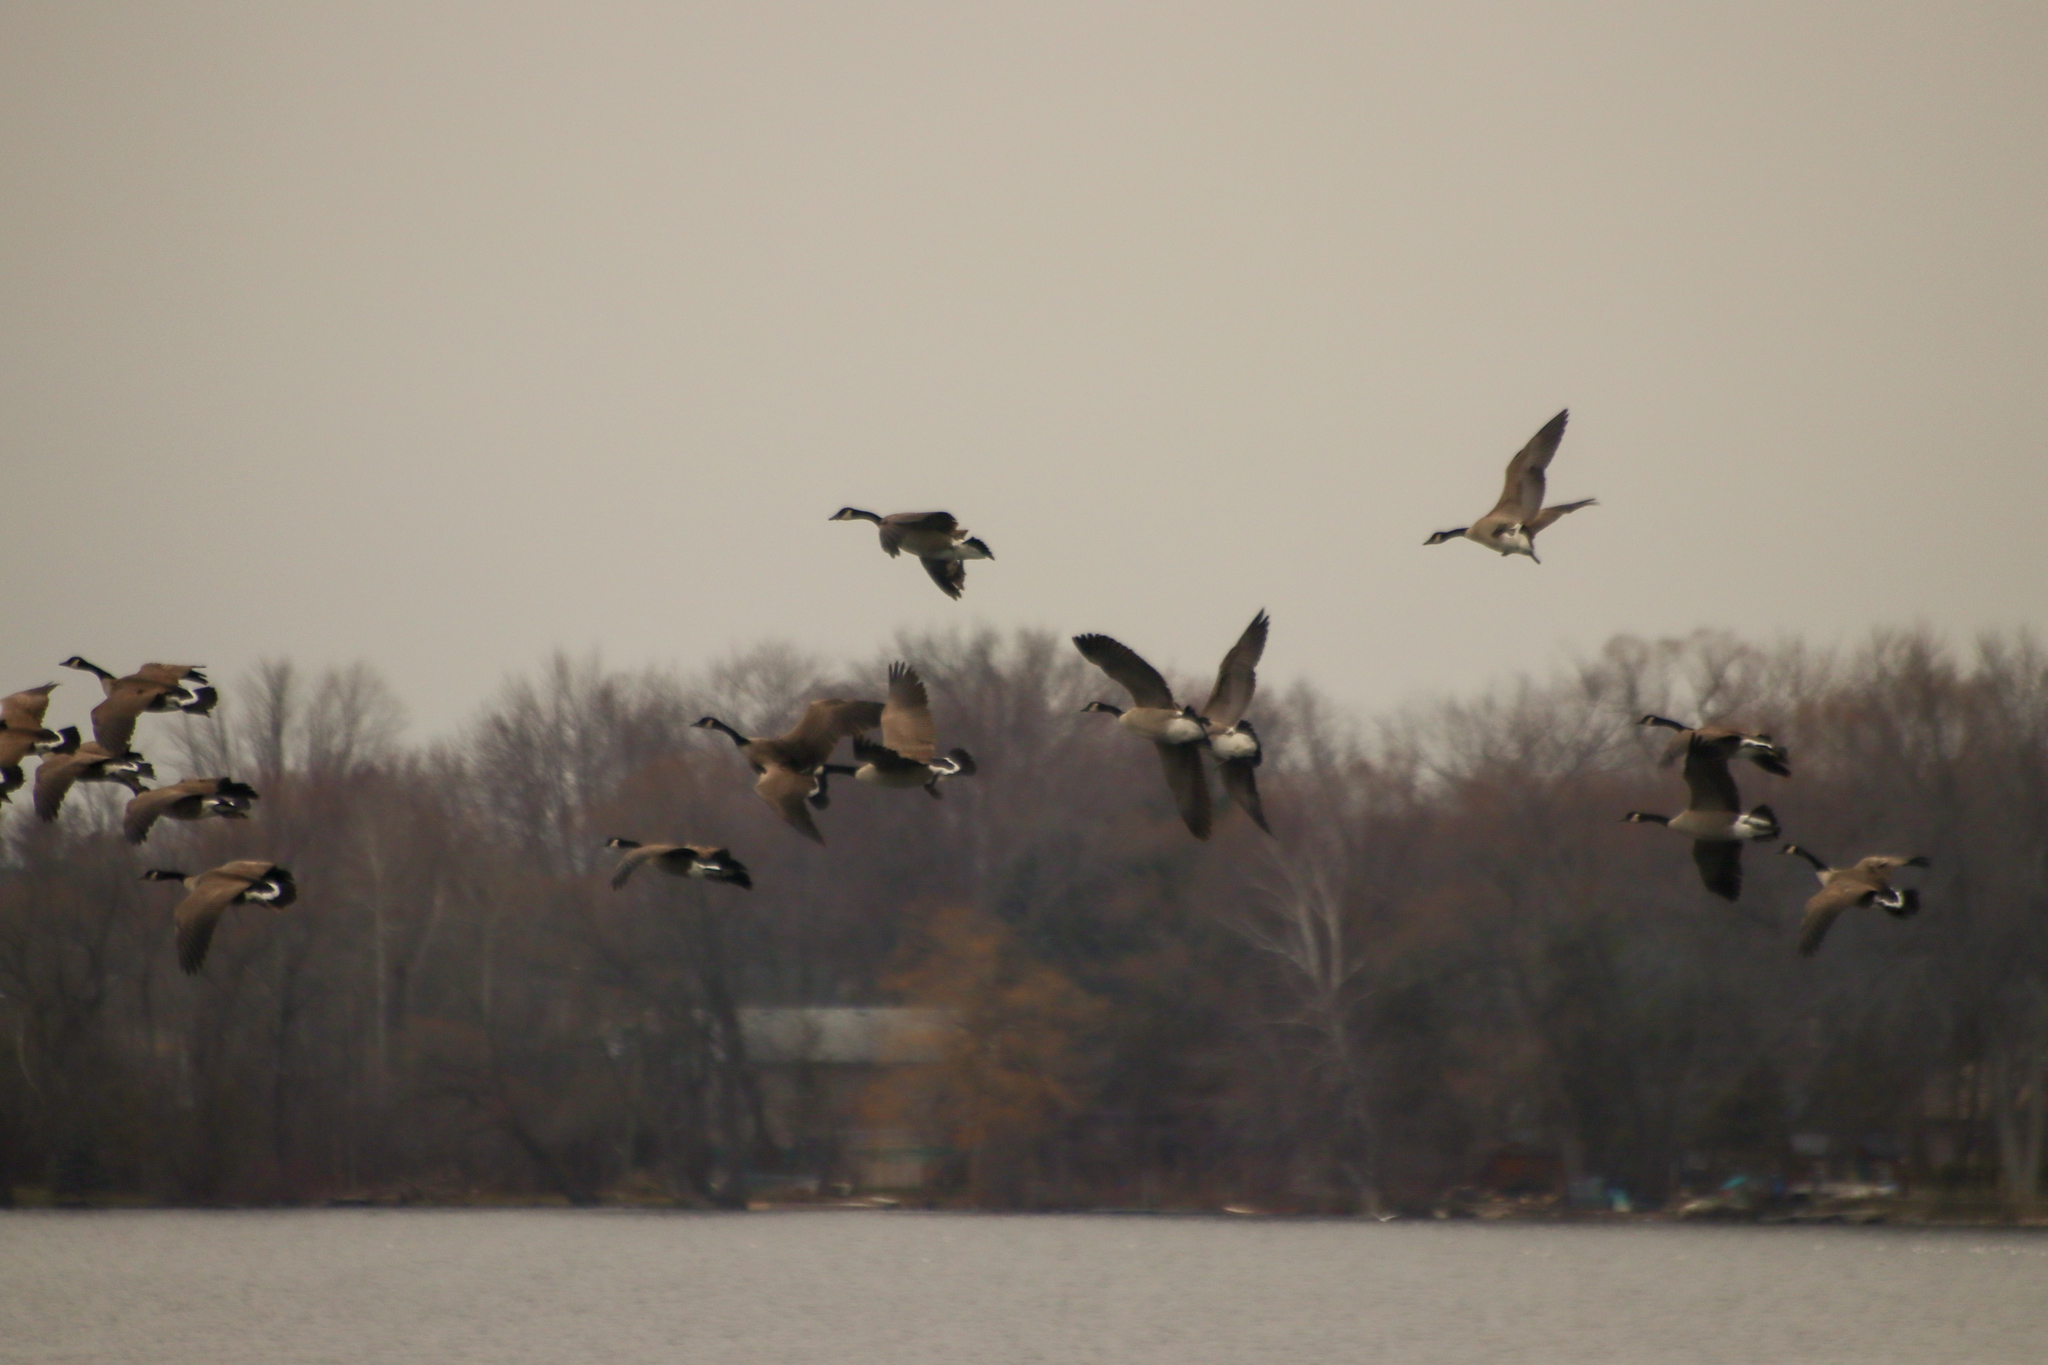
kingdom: Animalia
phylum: Chordata
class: Aves
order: Anseriformes
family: Anatidae
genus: Branta
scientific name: Branta canadensis
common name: Canada goose
